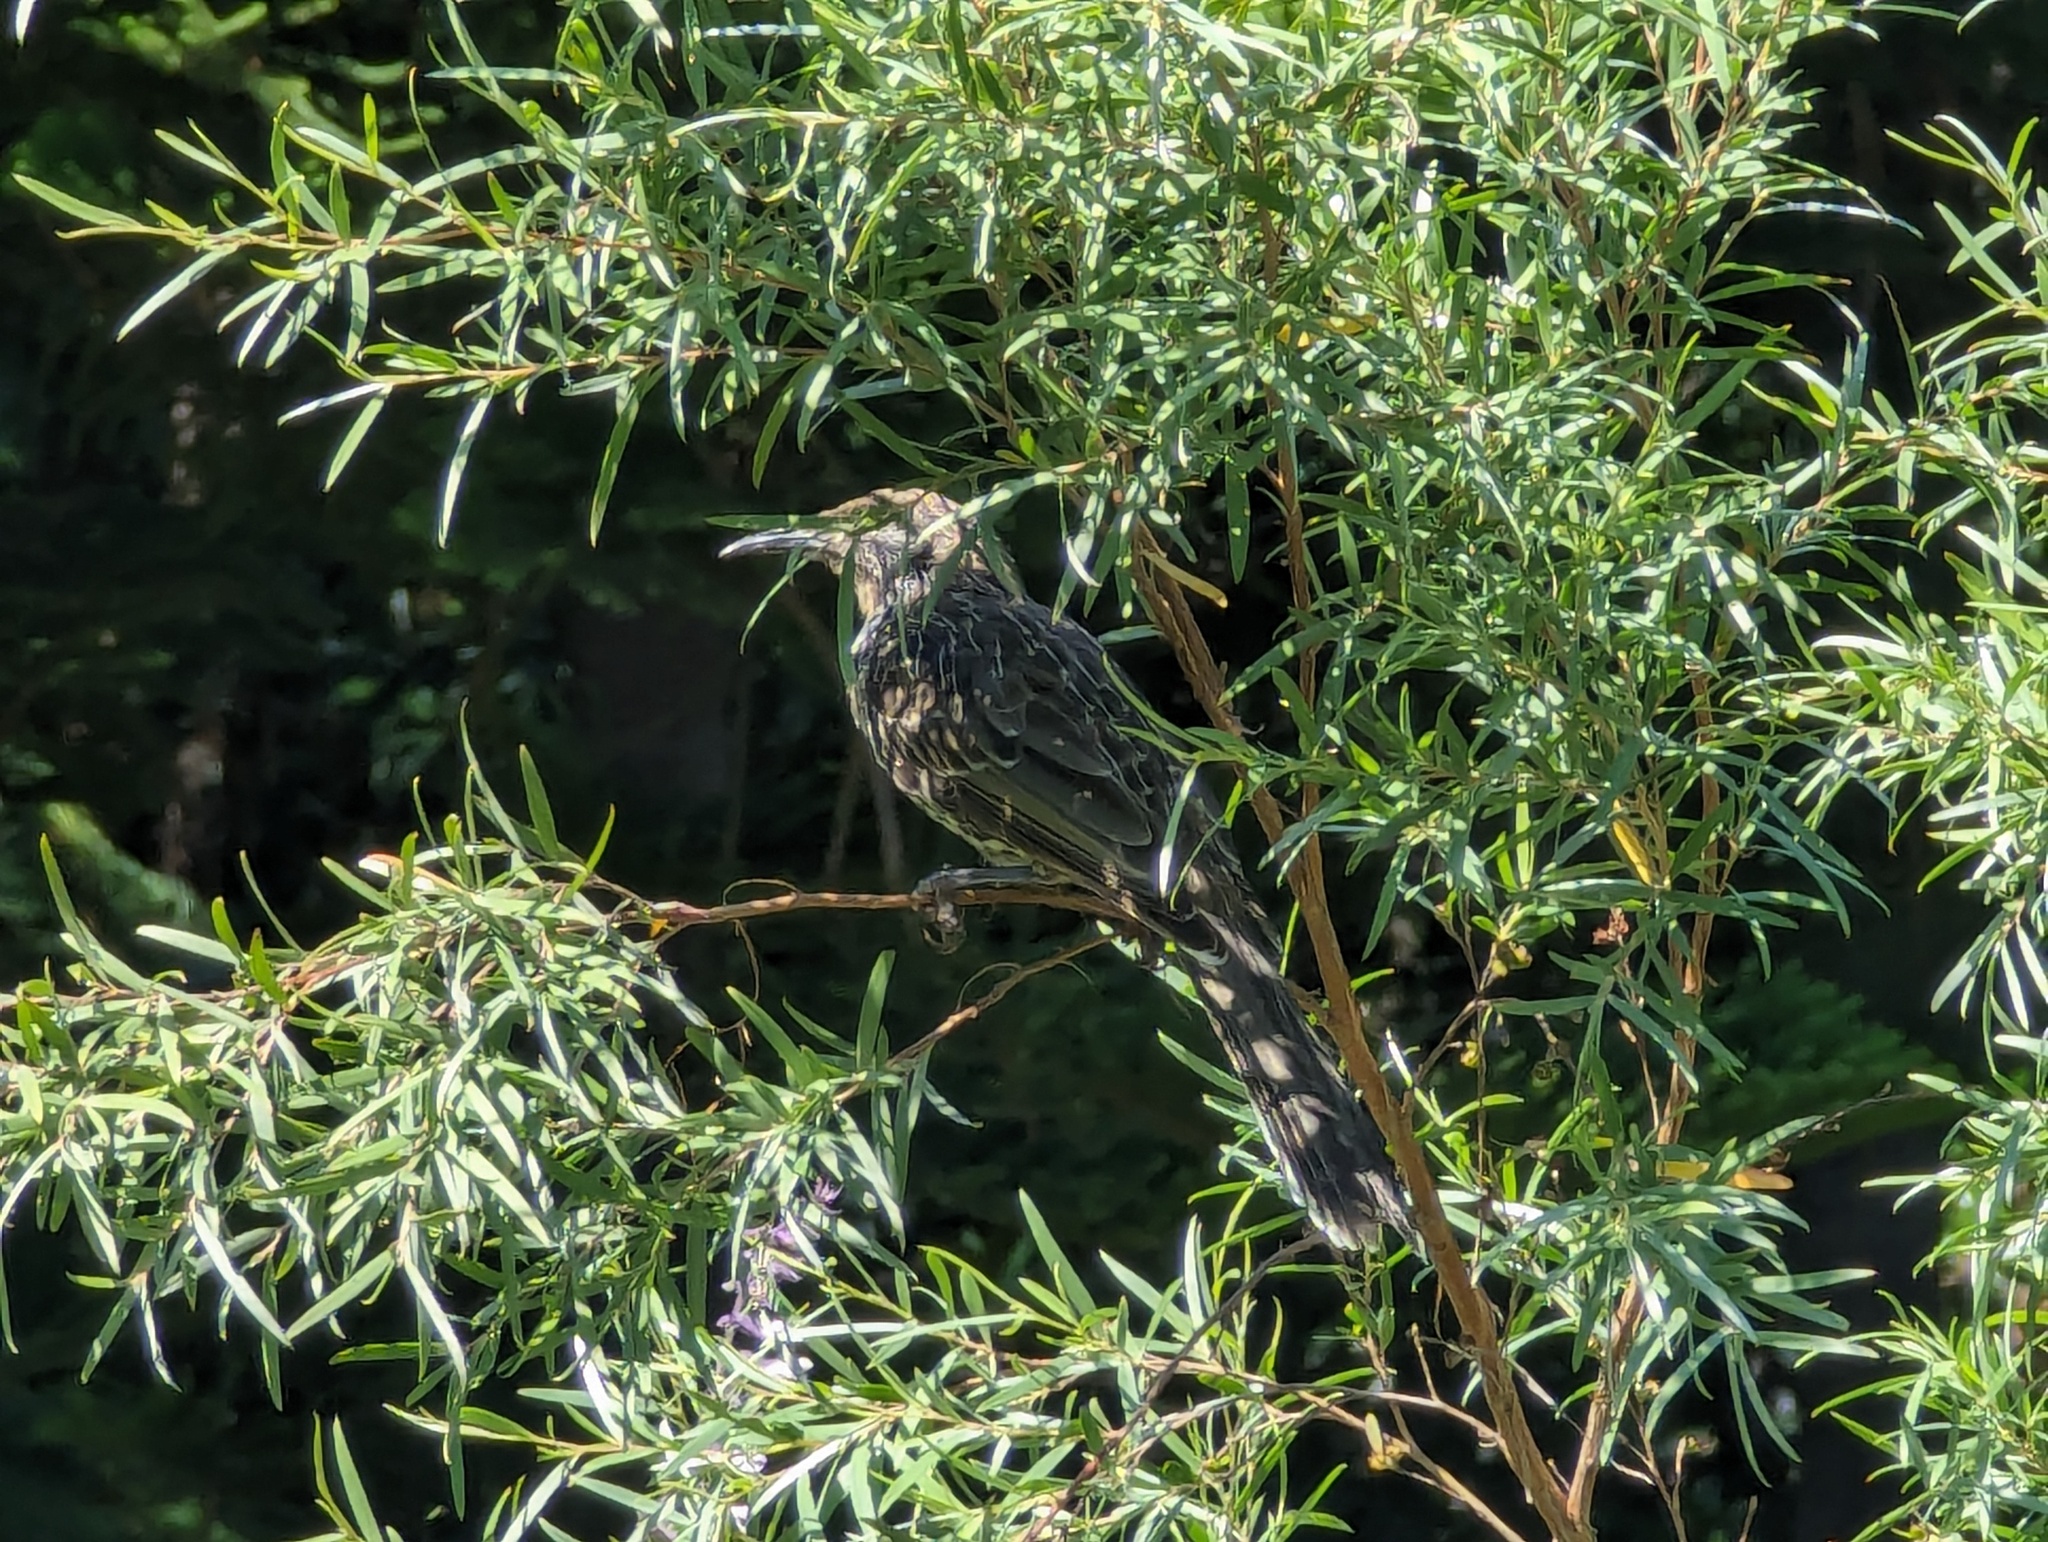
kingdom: Animalia
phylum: Chordata
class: Aves
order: Passeriformes
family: Meliphagidae
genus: Anthochaera
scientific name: Anthochaera chrysoptera
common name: Little wattlebird
